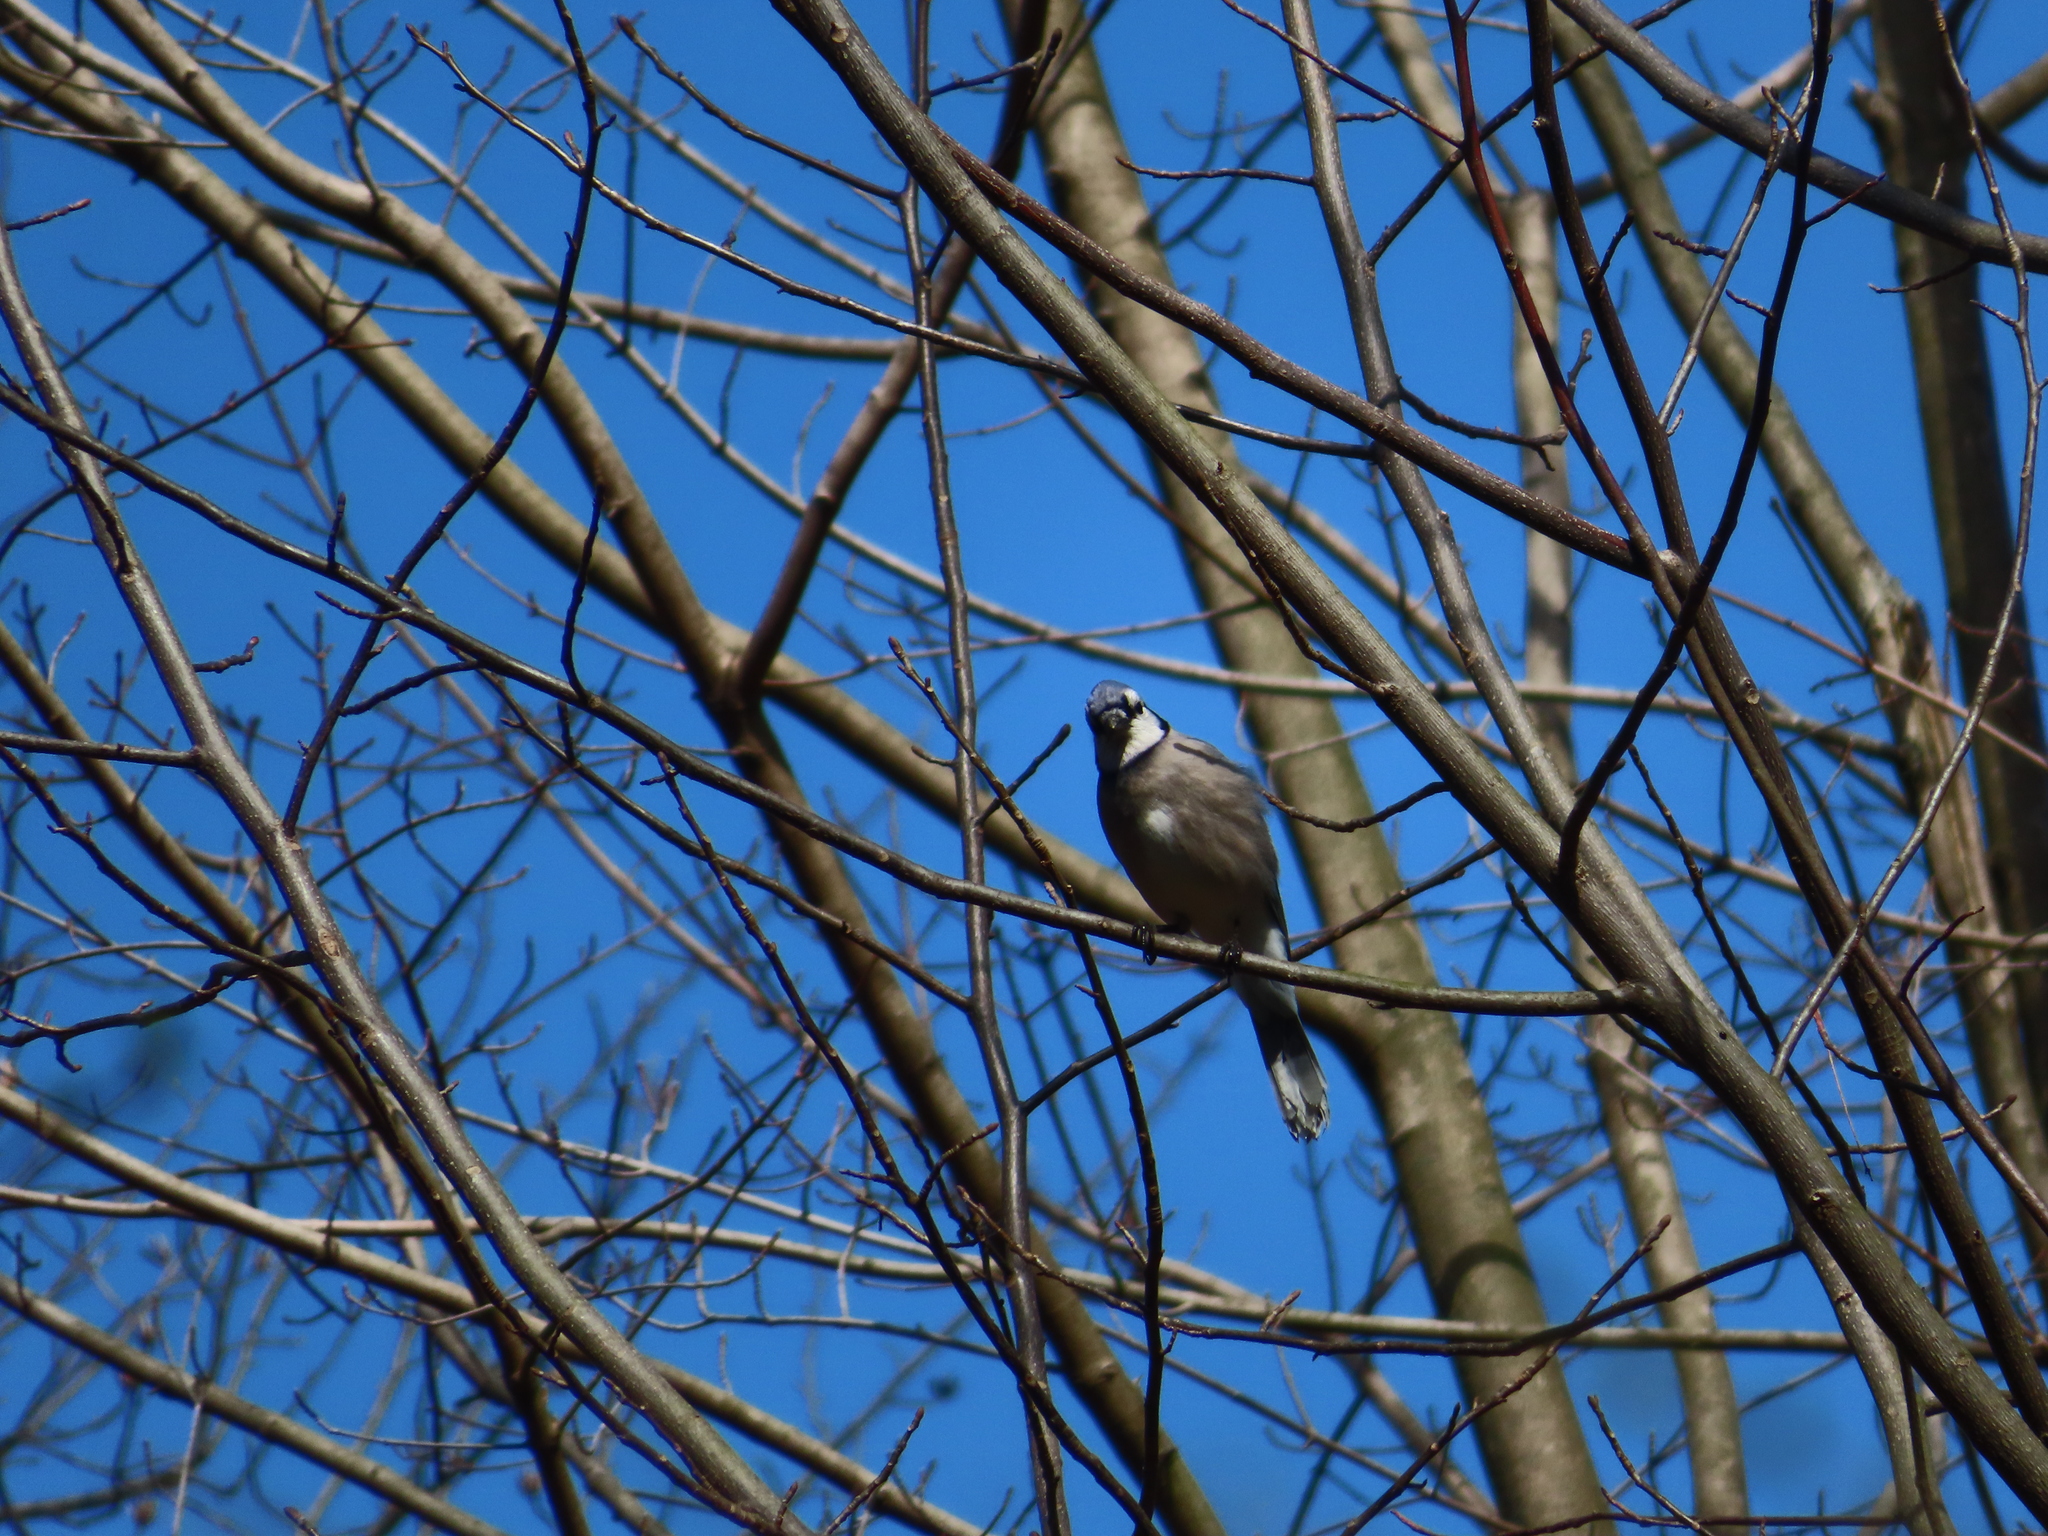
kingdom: Animalia
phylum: Chordata
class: Aves
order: Passeriformes
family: Corvidae
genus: Cyanocitta
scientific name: Cyanocitta cristata
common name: Blue jay
